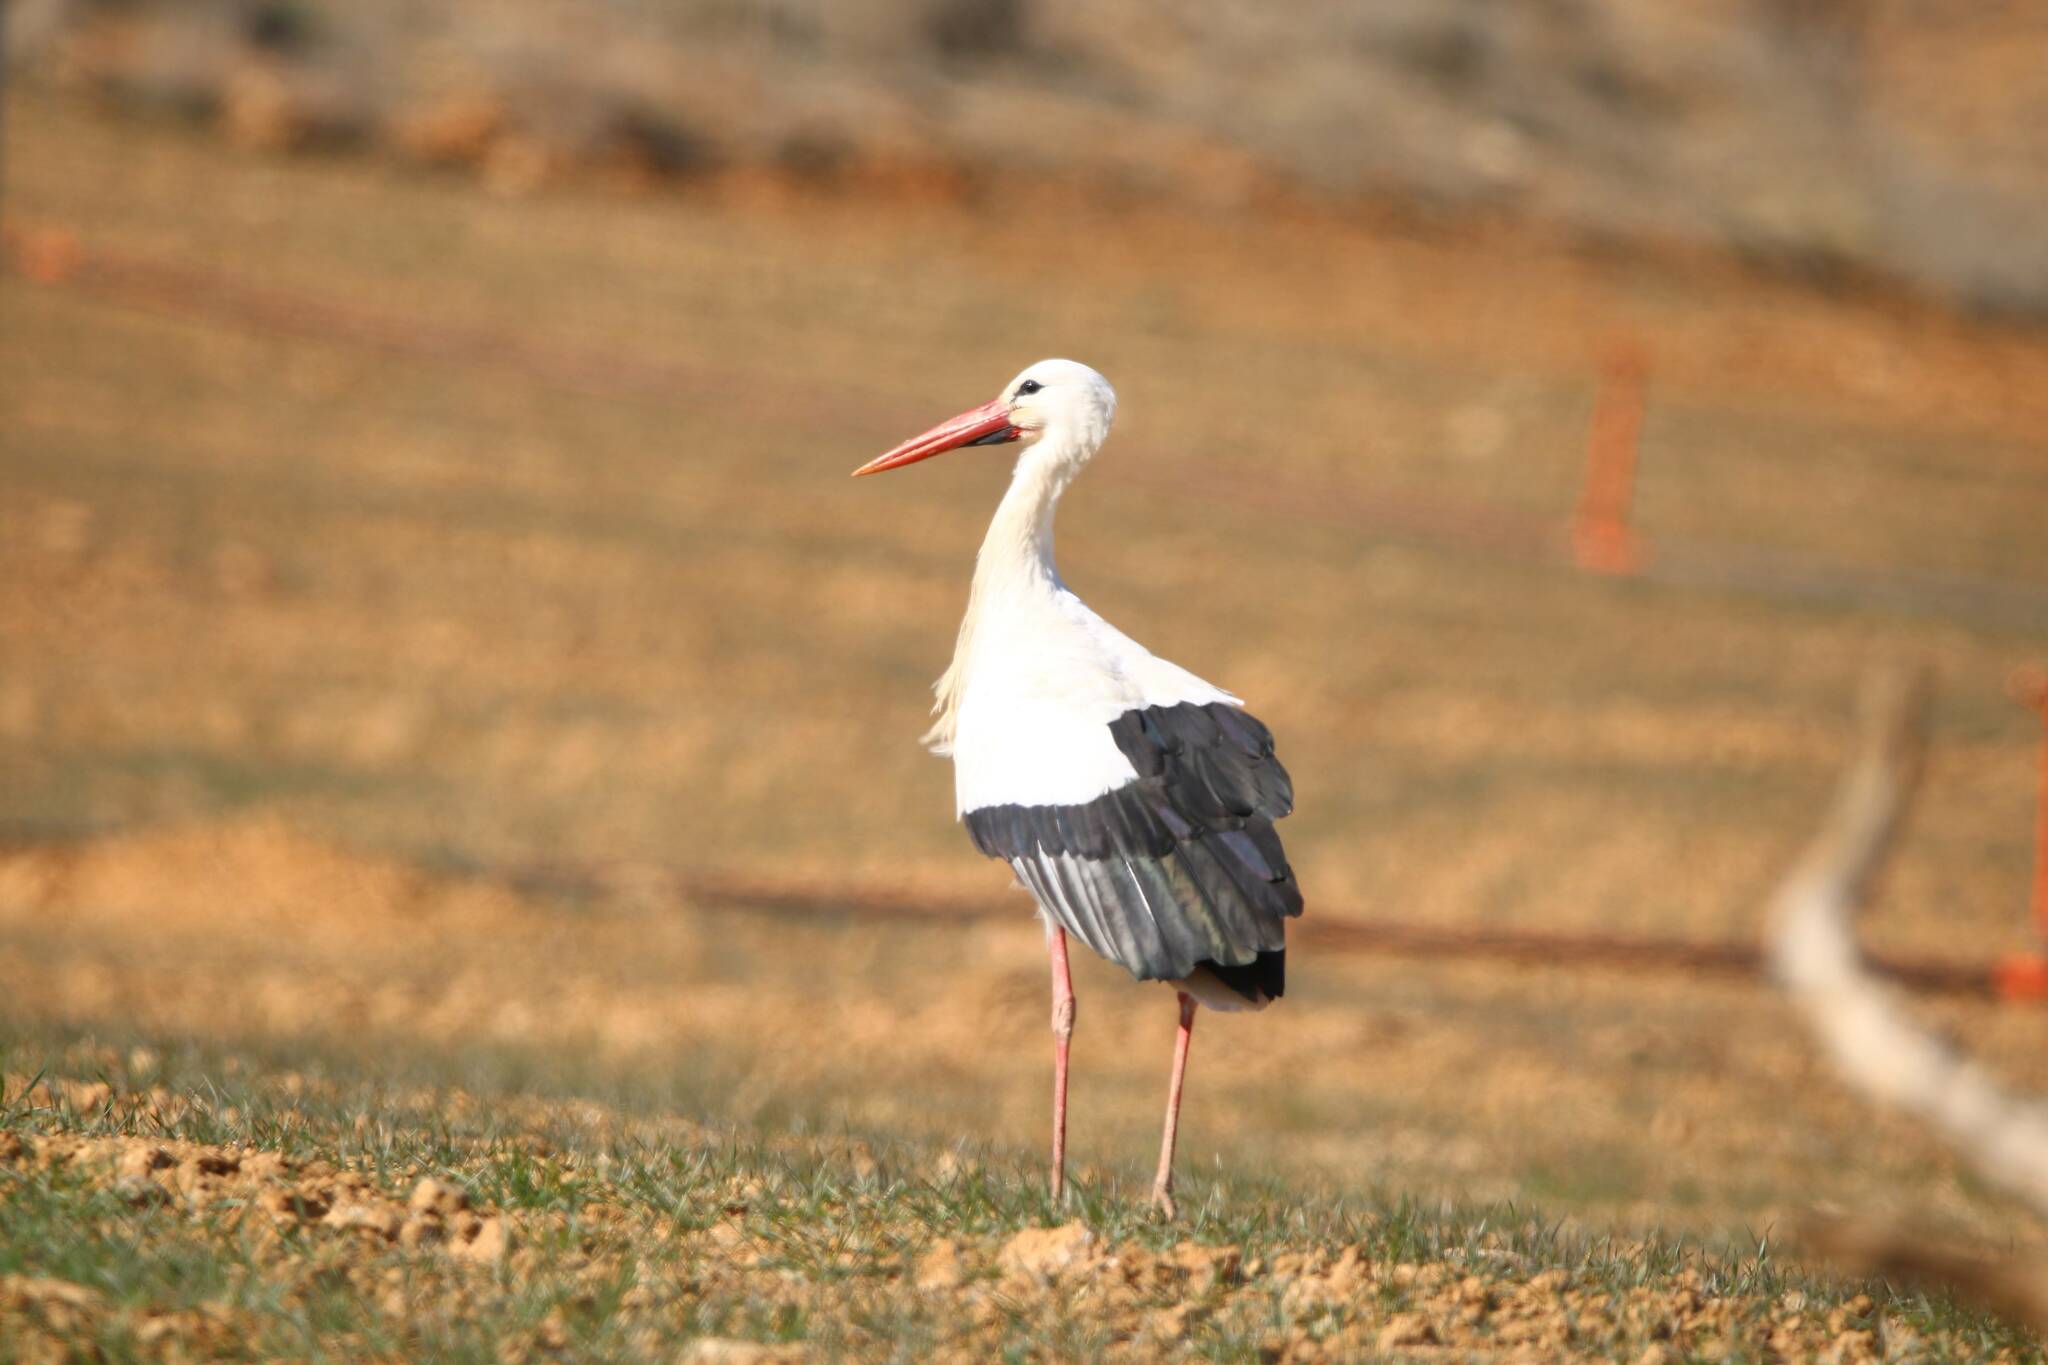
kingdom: Animalia
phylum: Chordata
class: Aves
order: Ciconiiformes
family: Ciconiidae
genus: Ciconia
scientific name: Ciconia ciconia
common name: White stork
